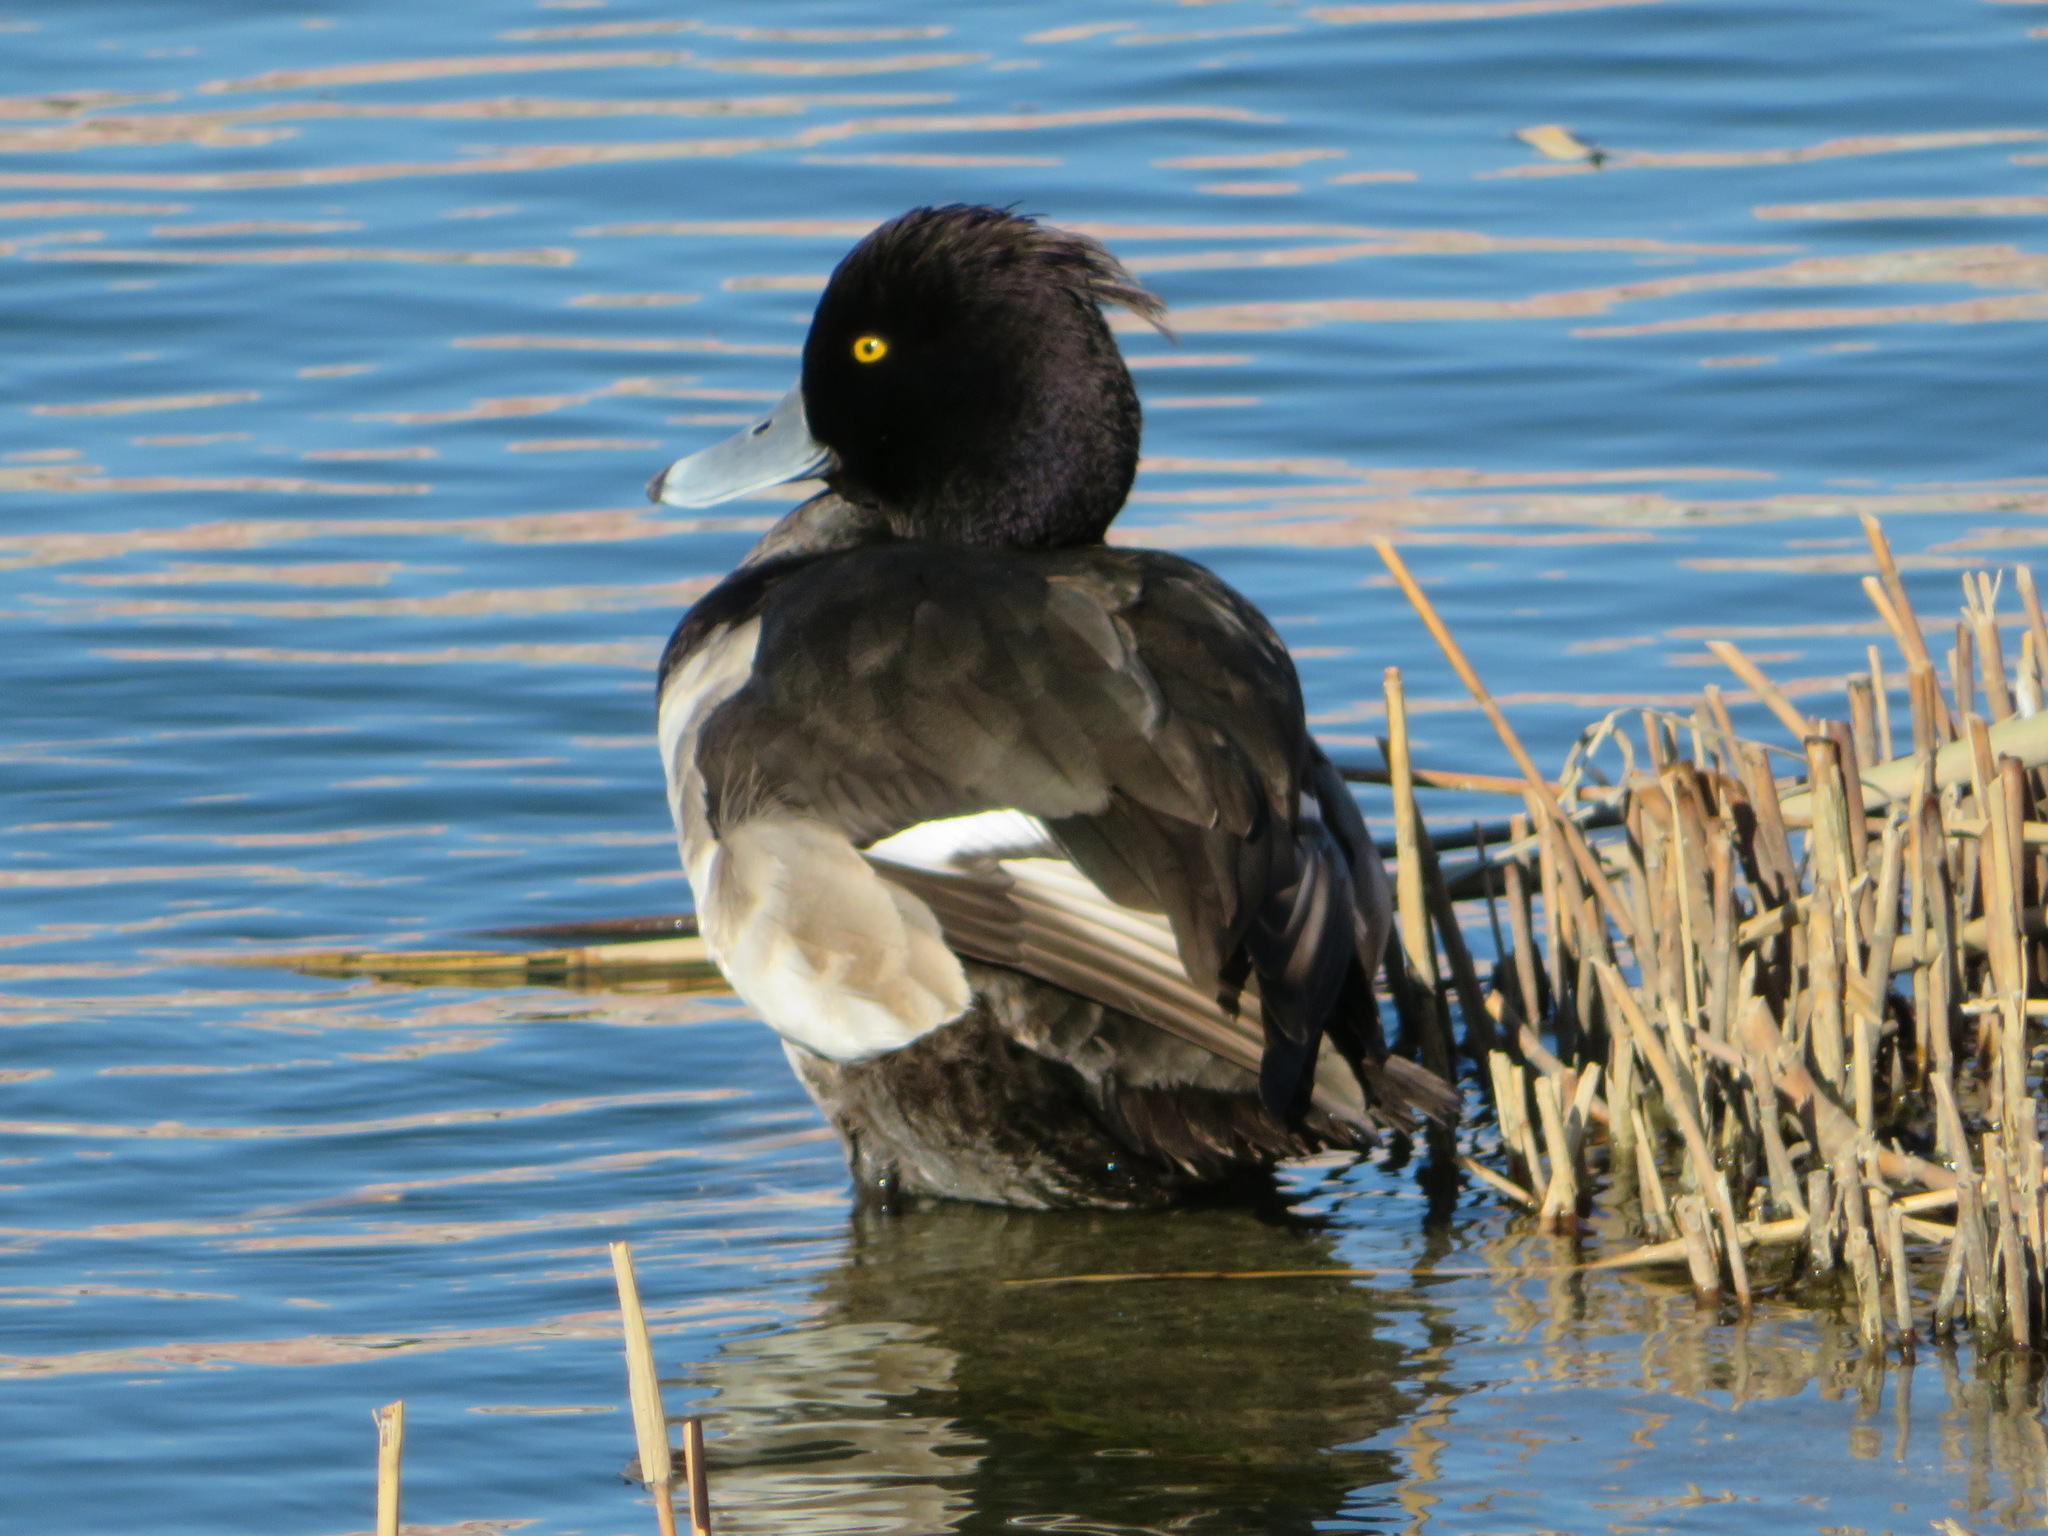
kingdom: Animalia
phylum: Chordata
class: Aves
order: Anseriformes
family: Anatidae
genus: Aythya
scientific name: Aythya fuligula
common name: Tufted duck
